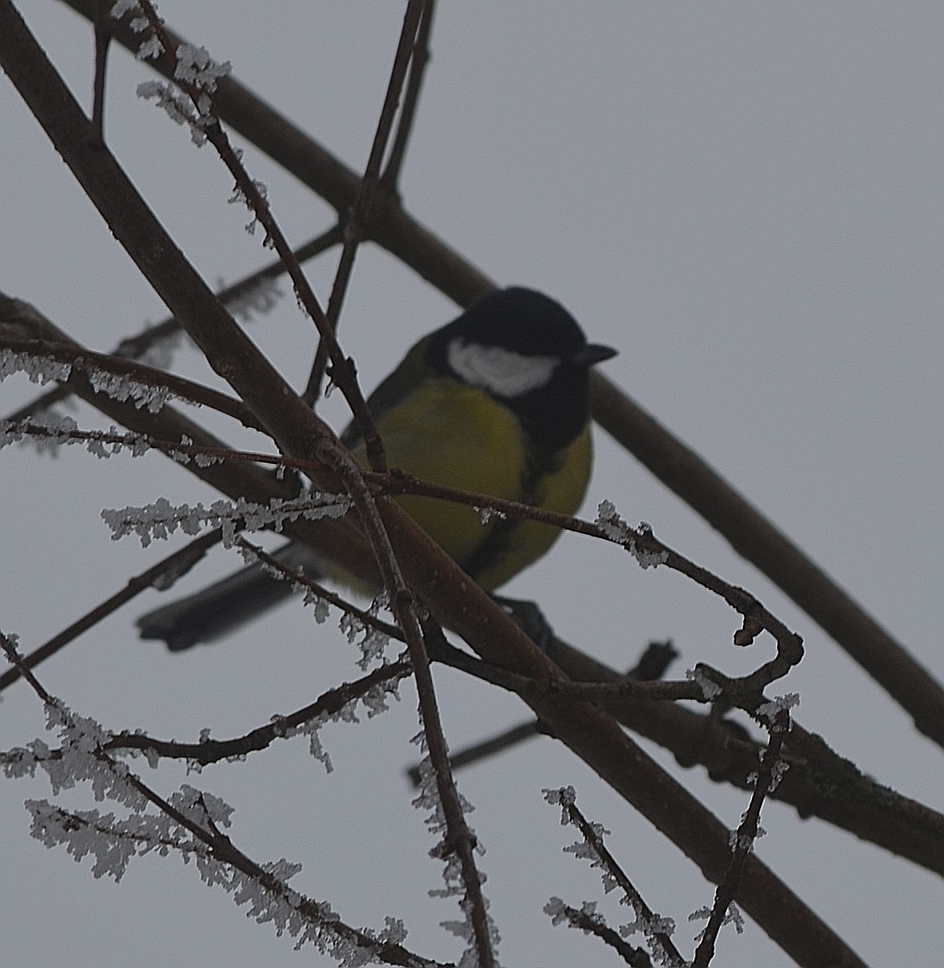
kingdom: Animalia
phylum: Chordata
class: Aves
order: Passeriformes
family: Paridae
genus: Parus
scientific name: Parus major
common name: Great tit
